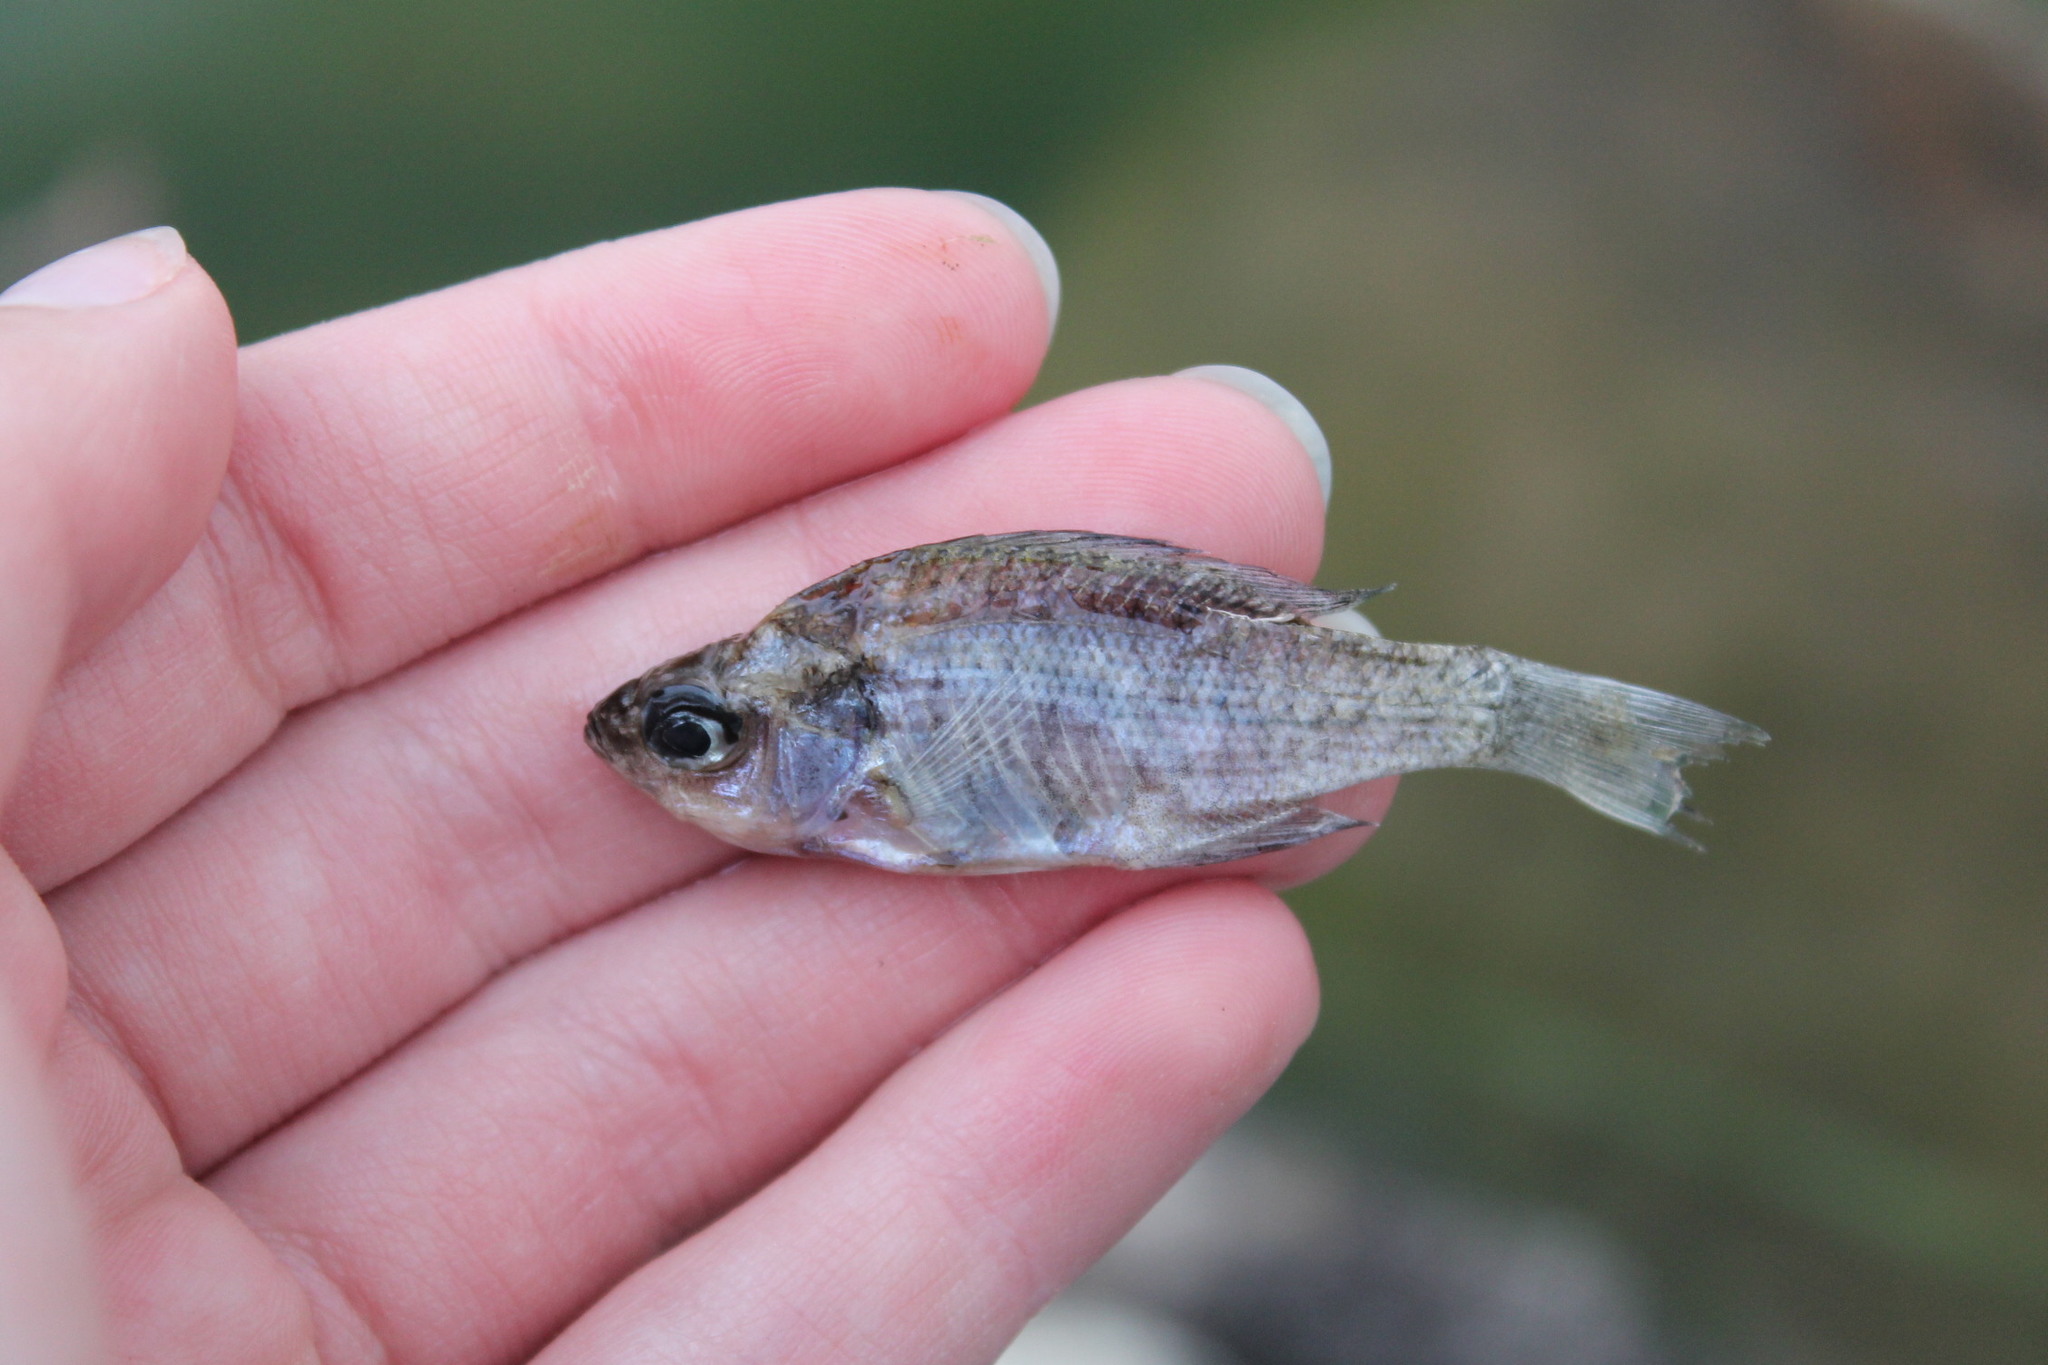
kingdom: Animalia
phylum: Chordata
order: Perciformes
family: Centrarchidae
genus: Lepomis
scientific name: Lepomis macrochirus
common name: Bluegill
